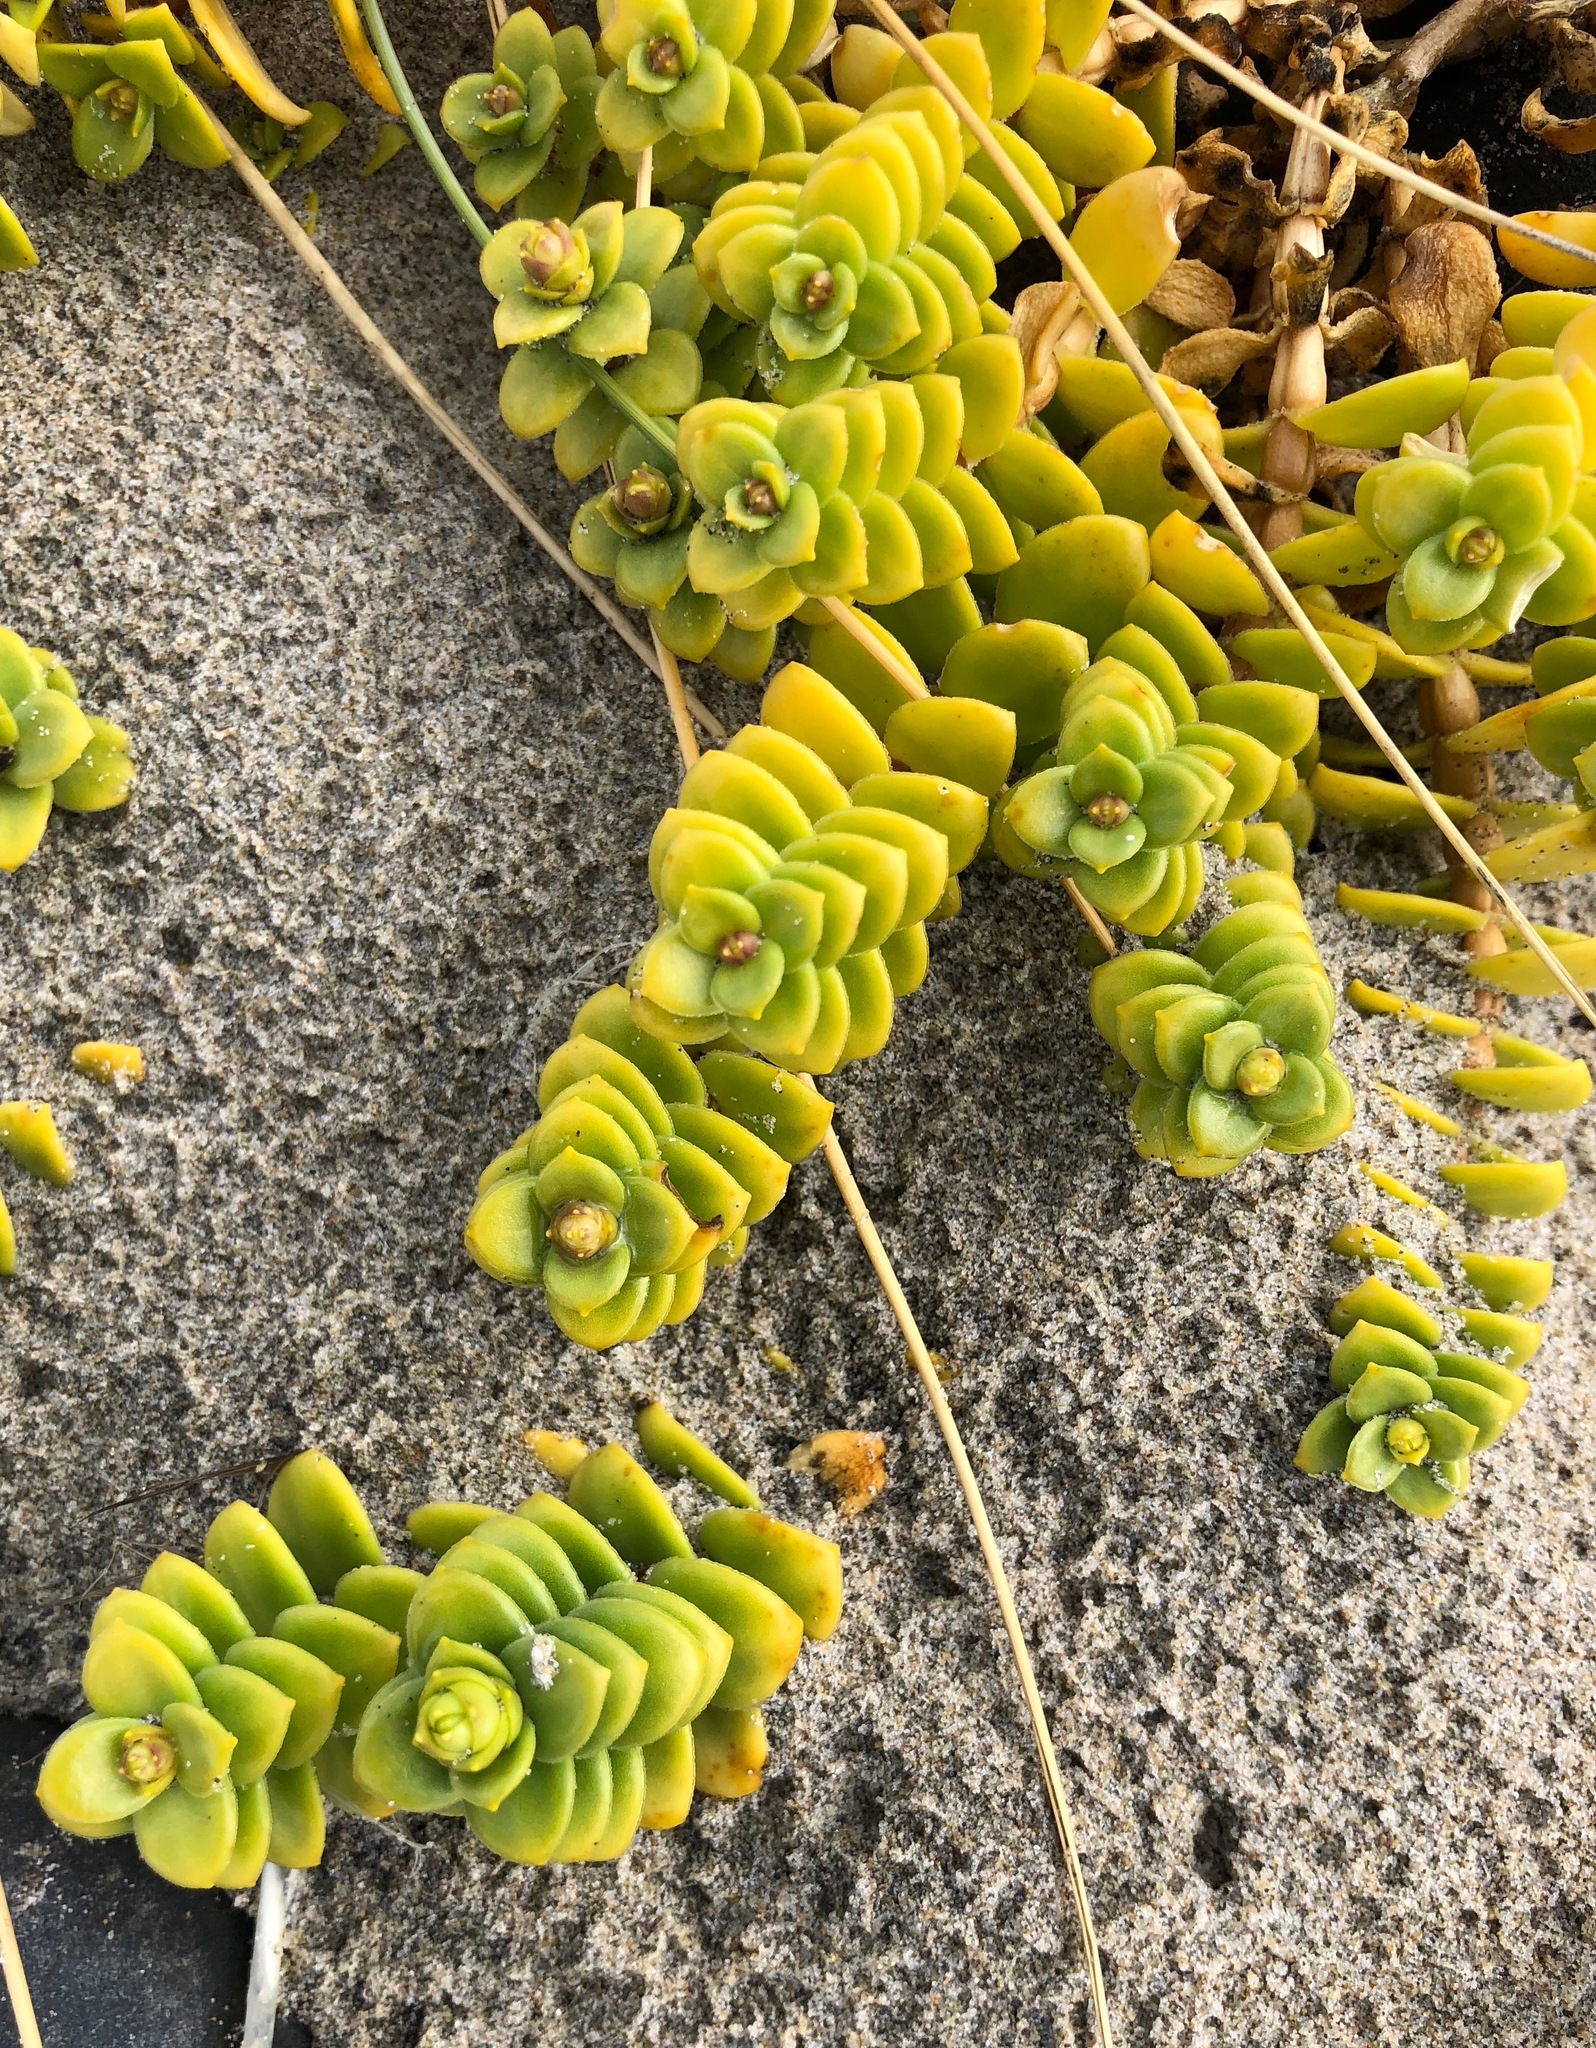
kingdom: Plantae
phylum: Tracheophyta
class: Magnoliopsida
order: Caryophyllales
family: Caryophyllaceae
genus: Honckenya
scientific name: Honckenya peploides
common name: Sea sandwort
